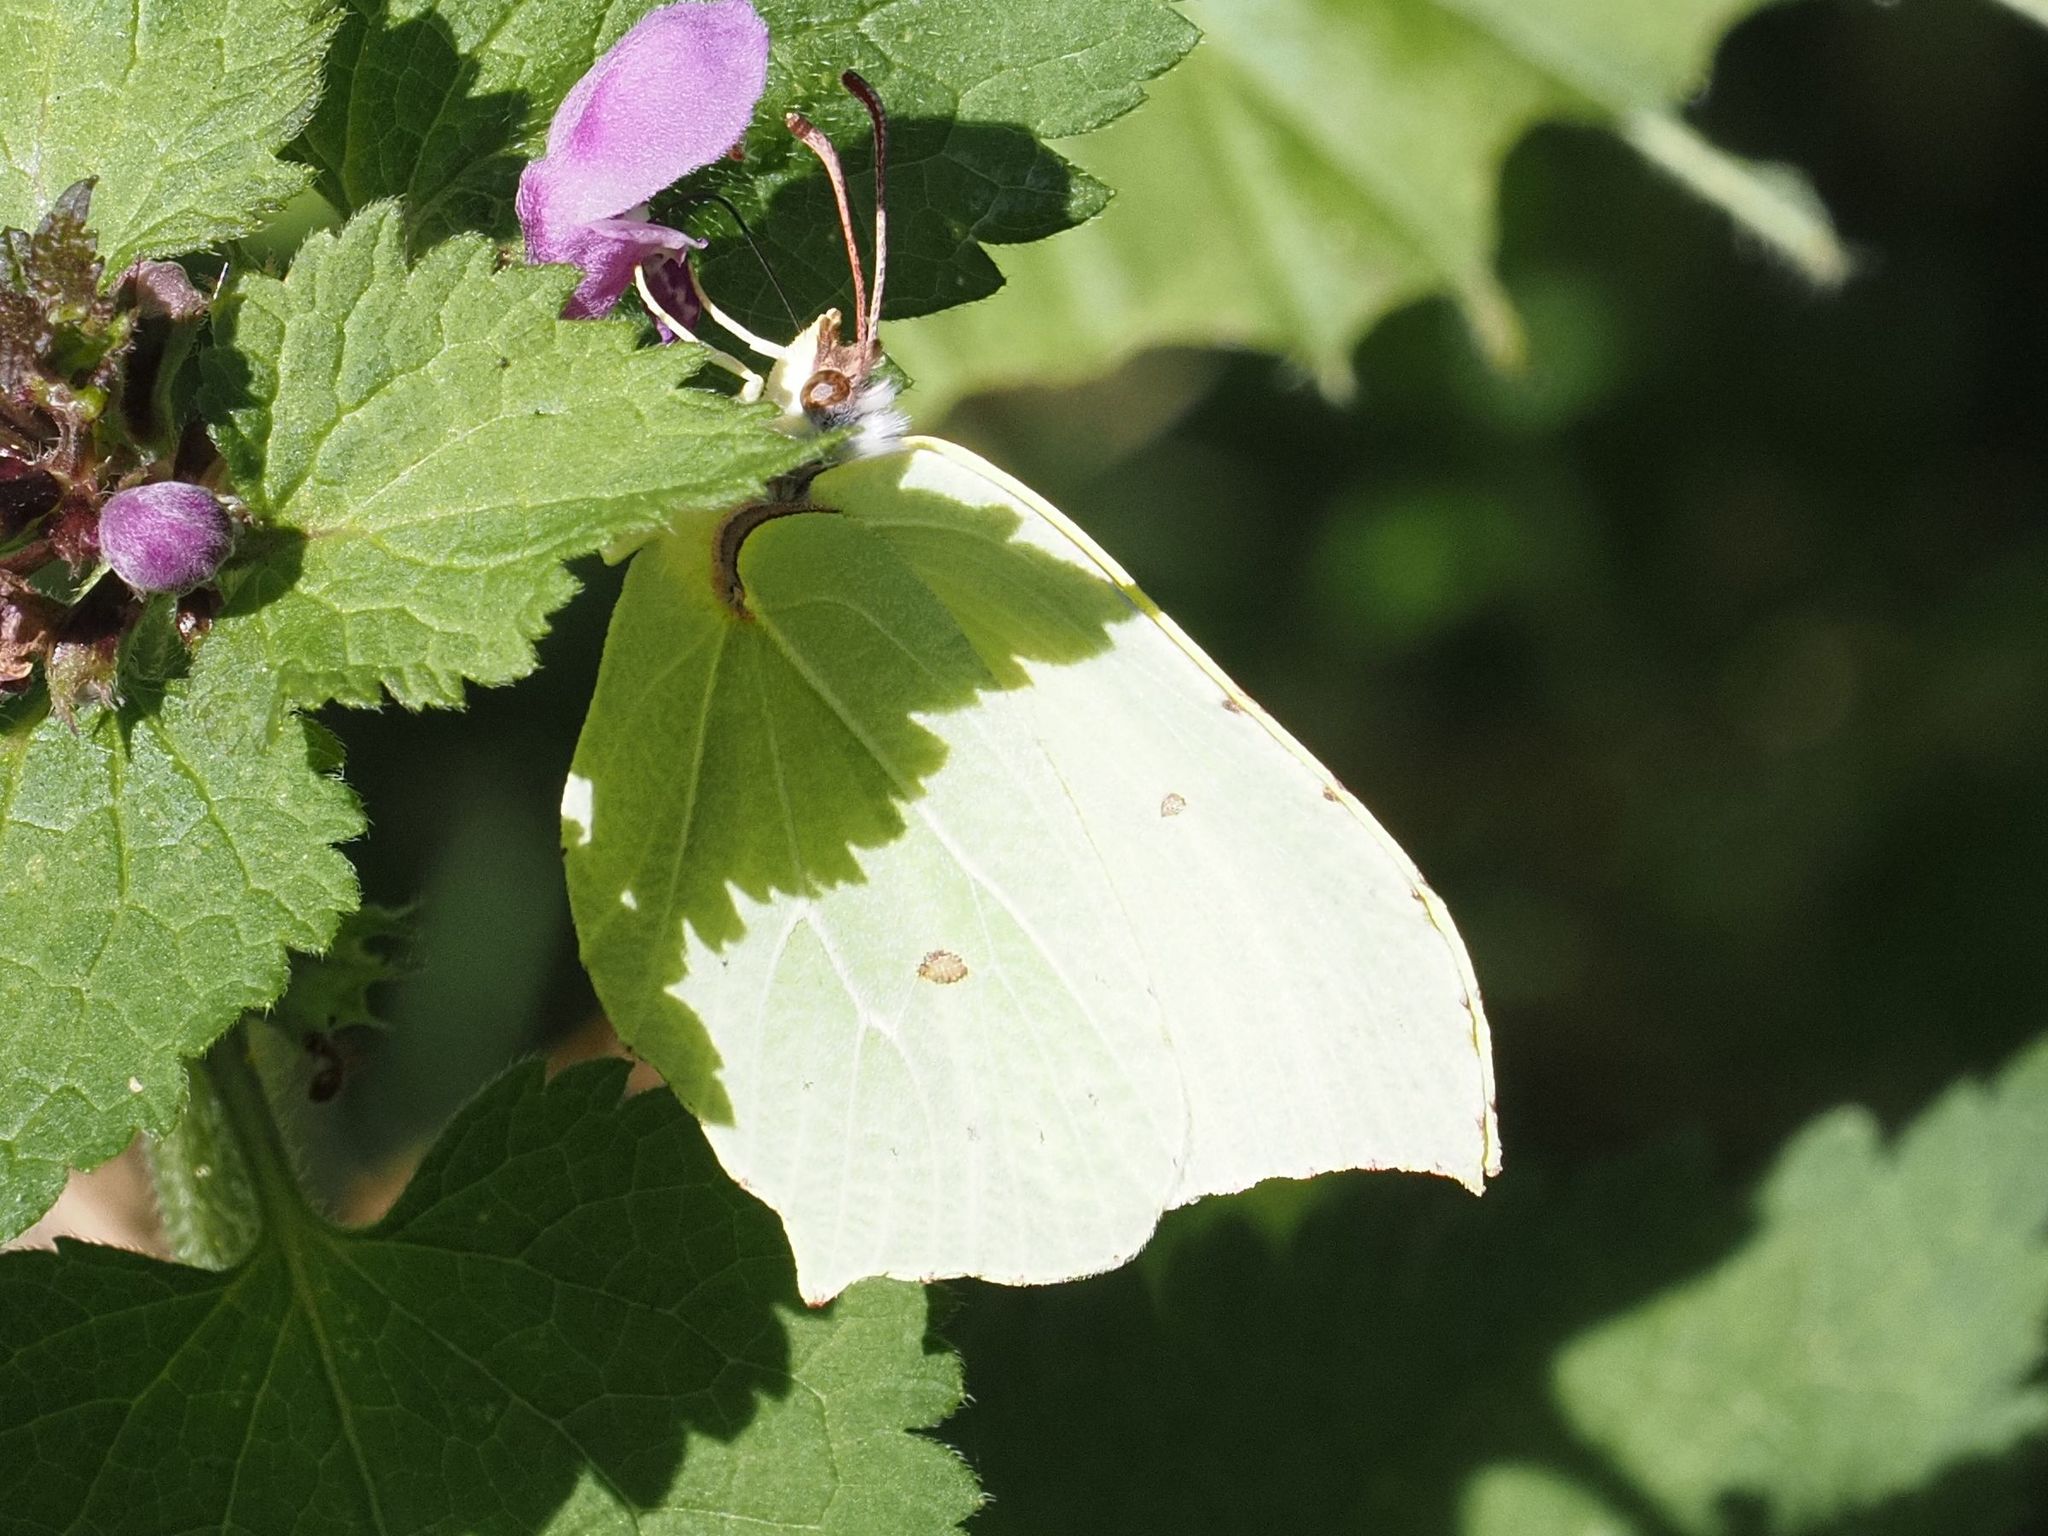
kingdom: Animalia
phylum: Arthropoda
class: Insecta
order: Lepidoptera
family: Pieridae
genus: Gonepteryx
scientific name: Gonepteryx rhamni
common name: Brimstone
